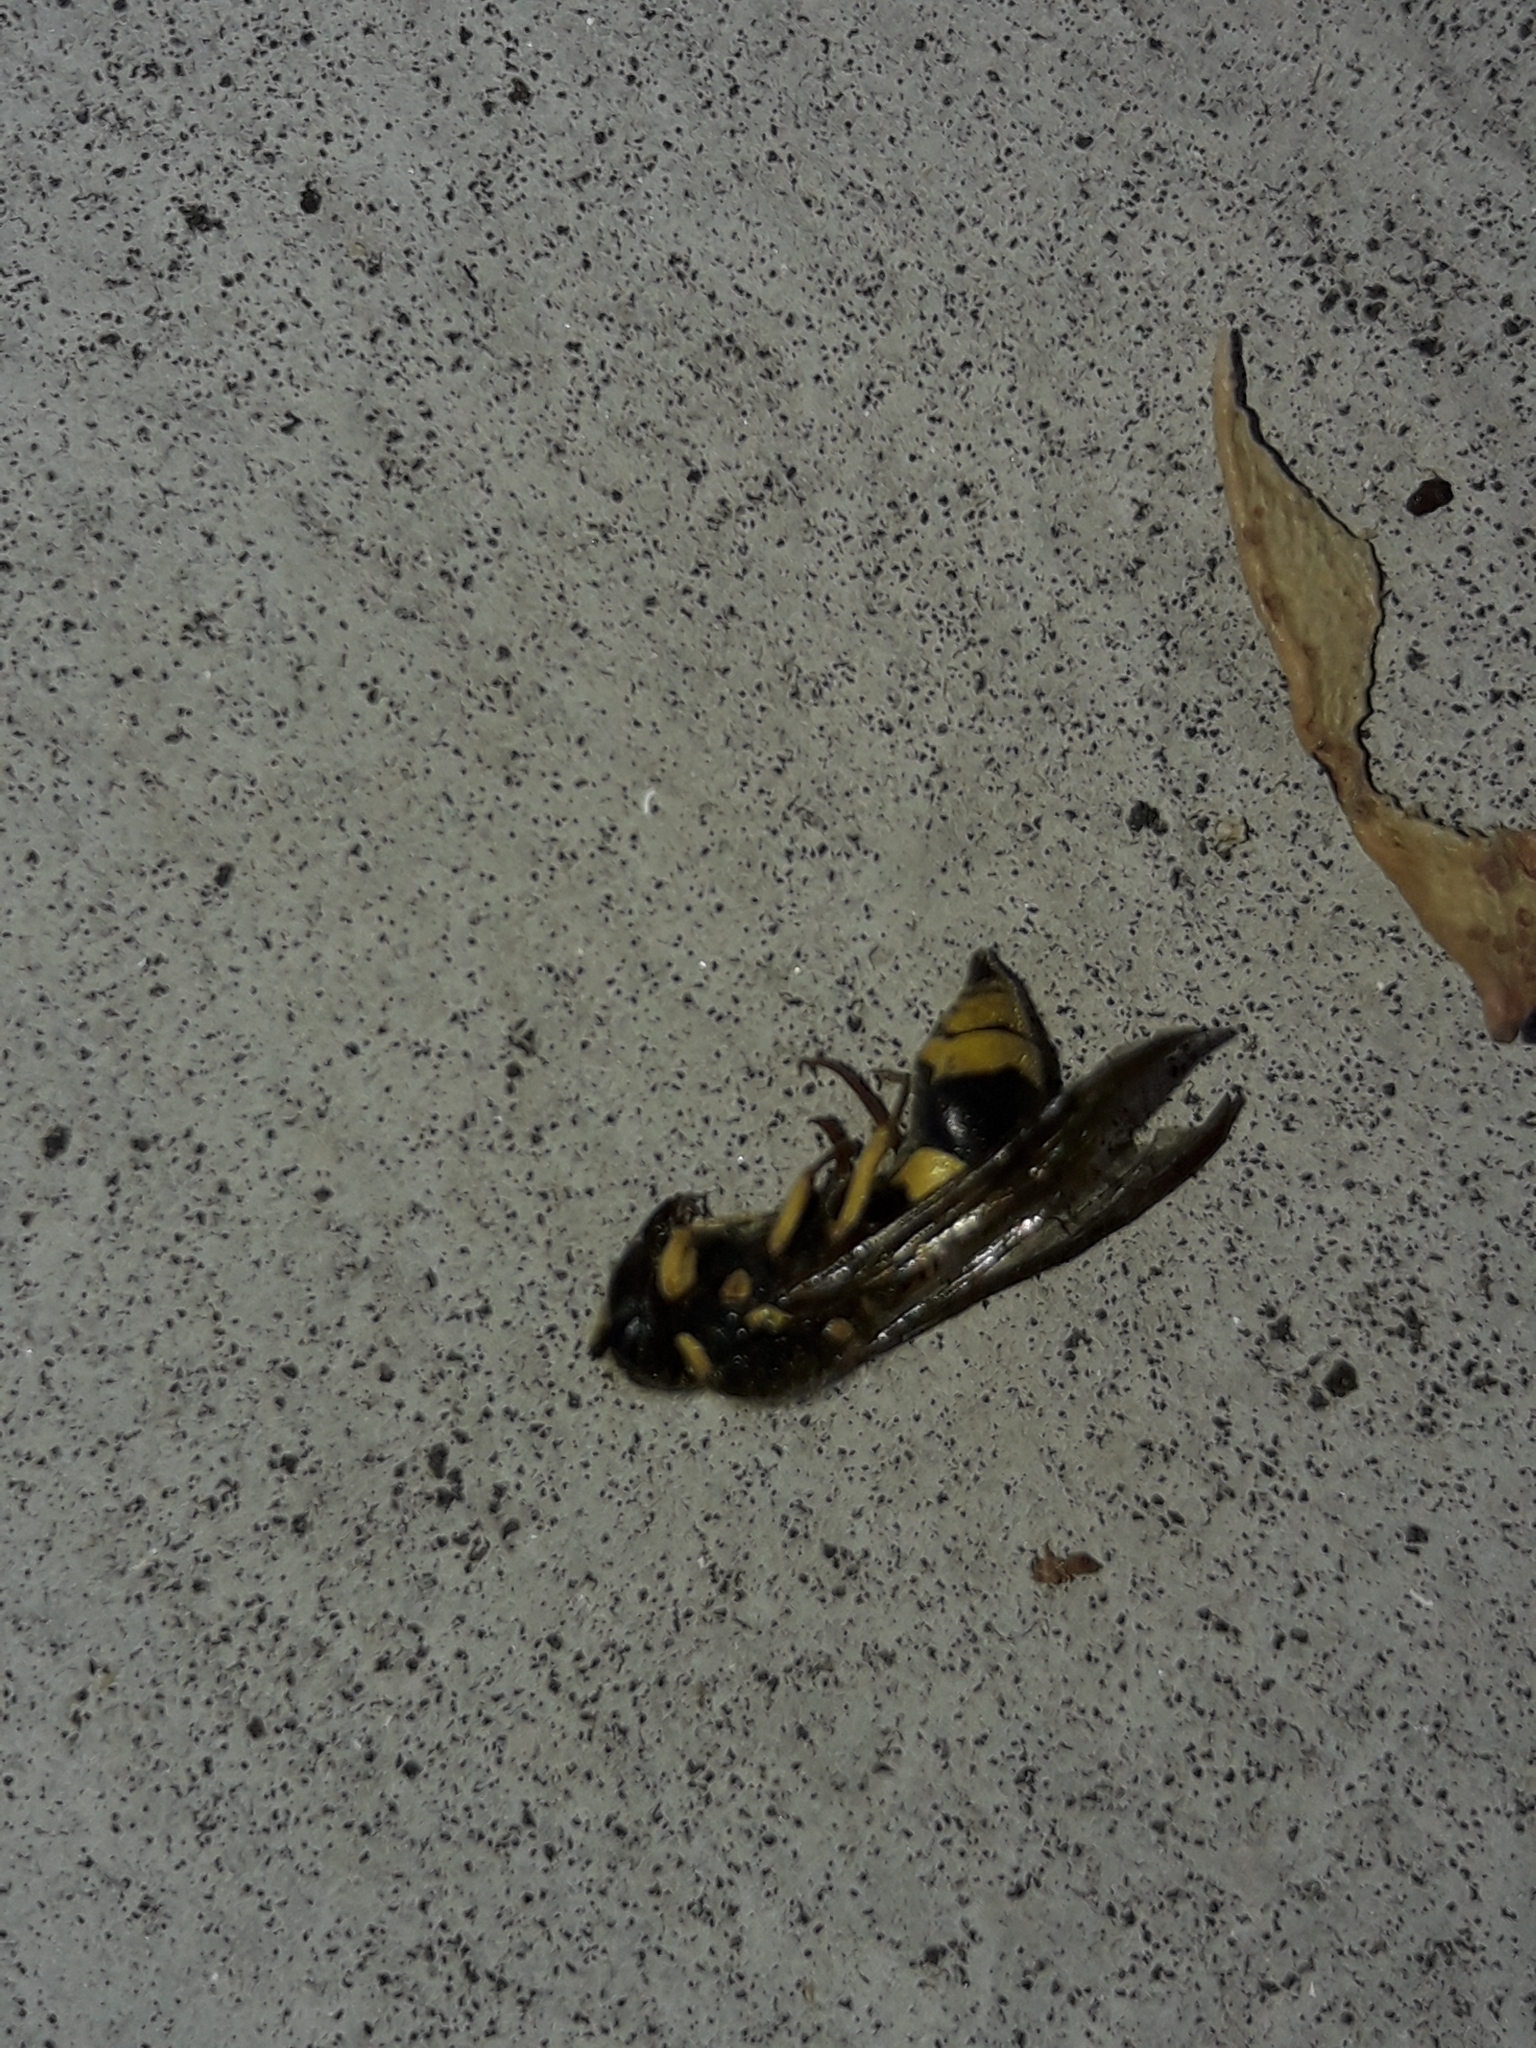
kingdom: Animalia
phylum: Arthropoda
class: Insecta
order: Hymenoptera
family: Vespidae
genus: Ancistrocerus
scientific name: Ancistrocerus gazella
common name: European tube wasp
